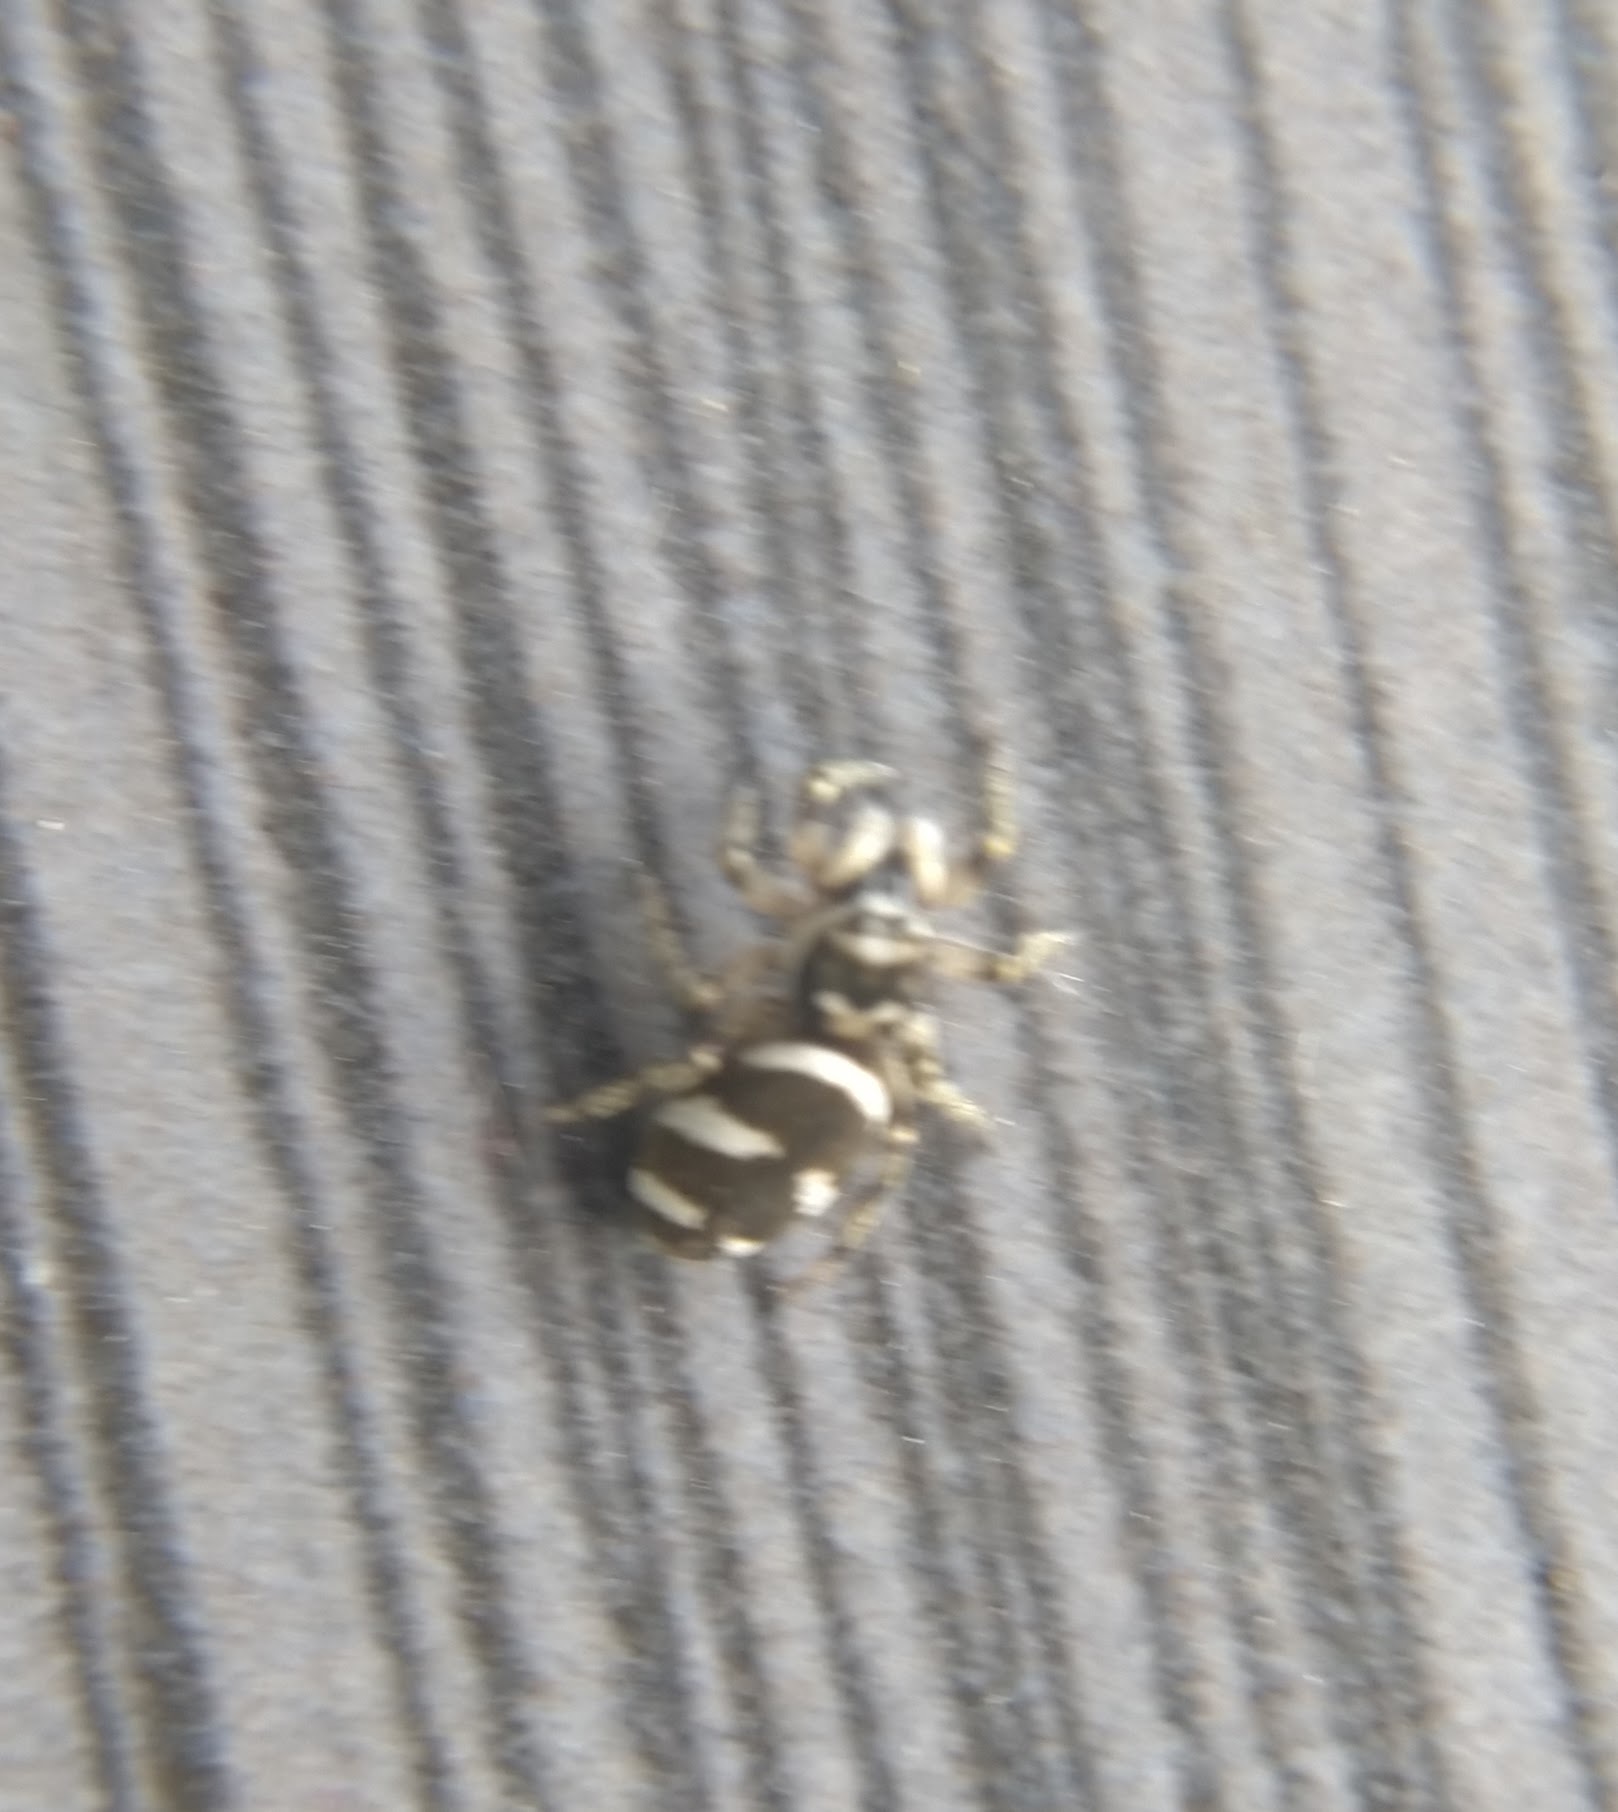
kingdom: Animalia
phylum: Arthropoda
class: Arachnida
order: Araneae
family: Salticidae
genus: Salticus
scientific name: Salticus scenicus
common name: Zebra jumper
